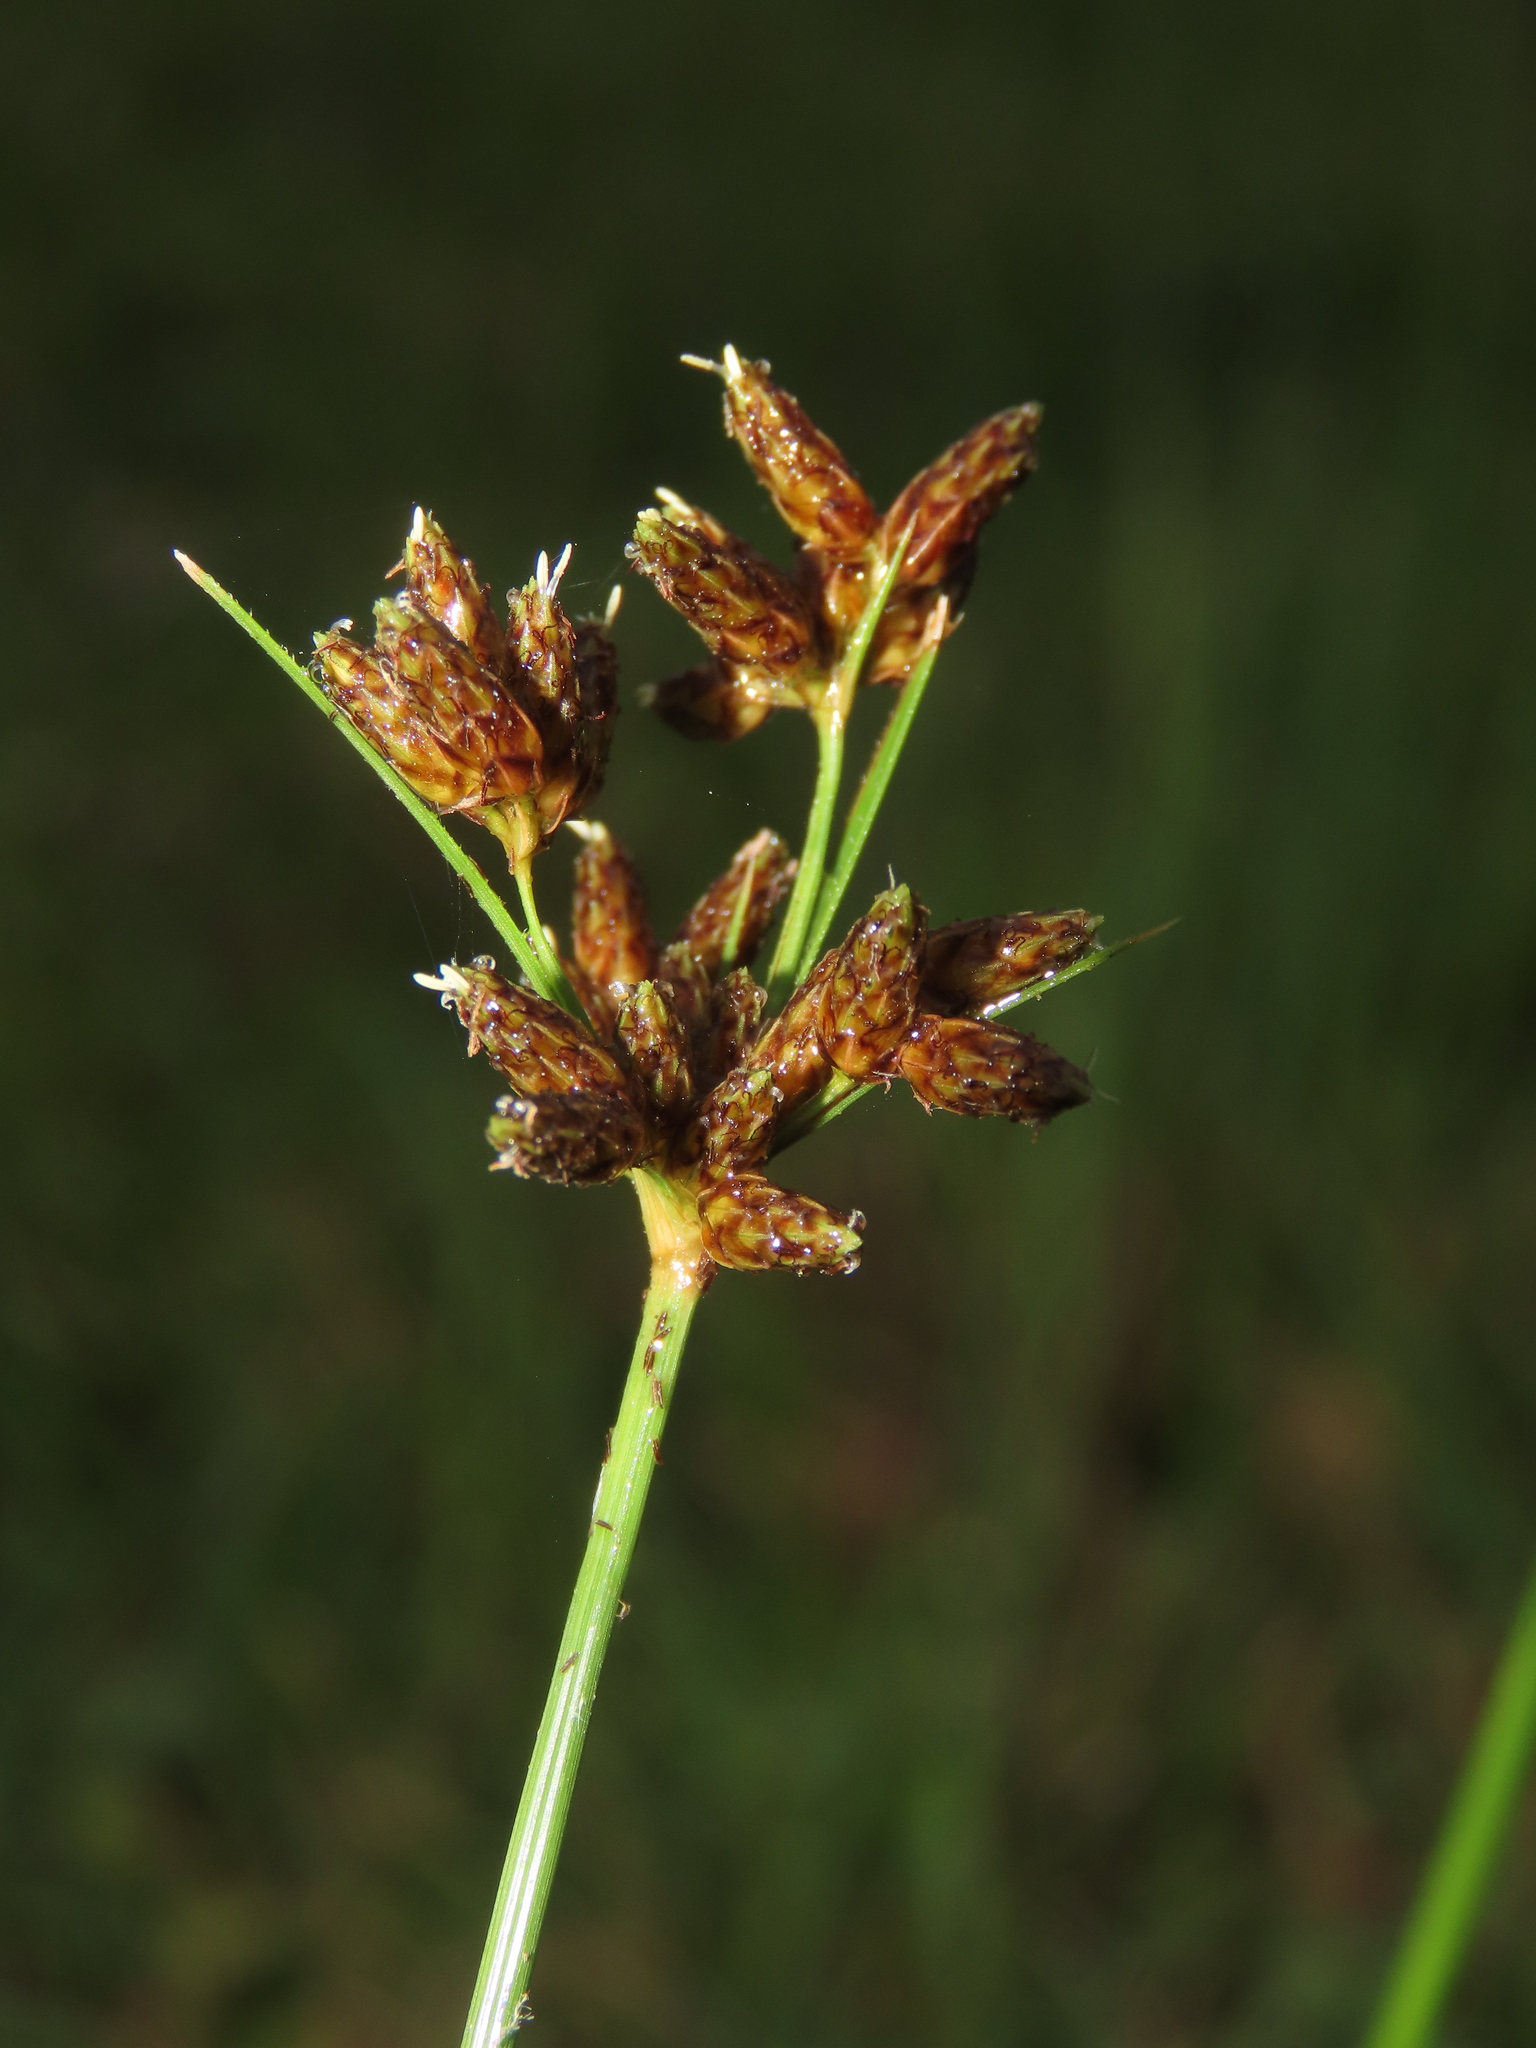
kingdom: Plantae
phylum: Tracheophyta
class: Liliopsida
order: Poales
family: Cyperaceae
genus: Fimbristylis
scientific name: Fimbristylis dichotoma
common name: Forked fimbry
